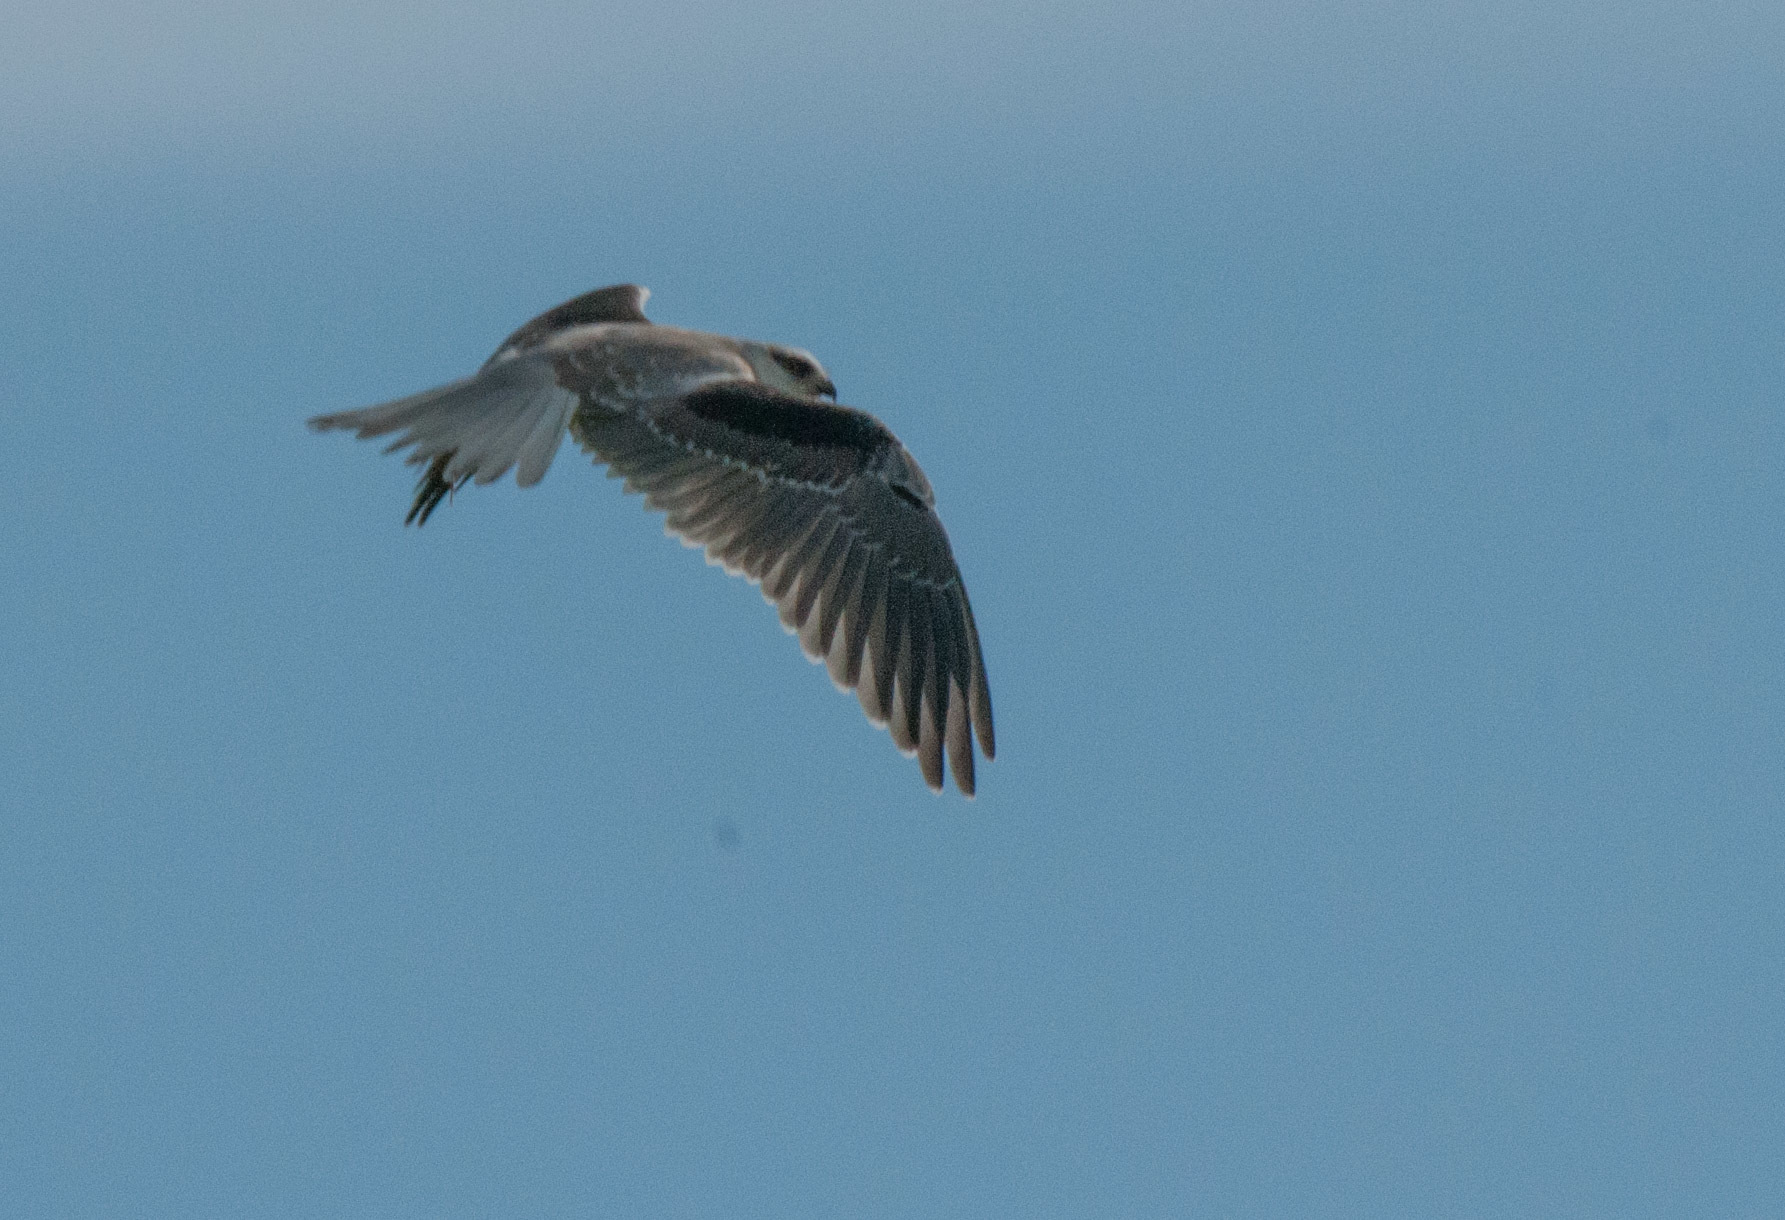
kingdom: Animalia
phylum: Chordata
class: Aves
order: Accipitriformes
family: Accipitridae
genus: Elanus
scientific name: Elanus axillaris
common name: Black-shouldered kite
